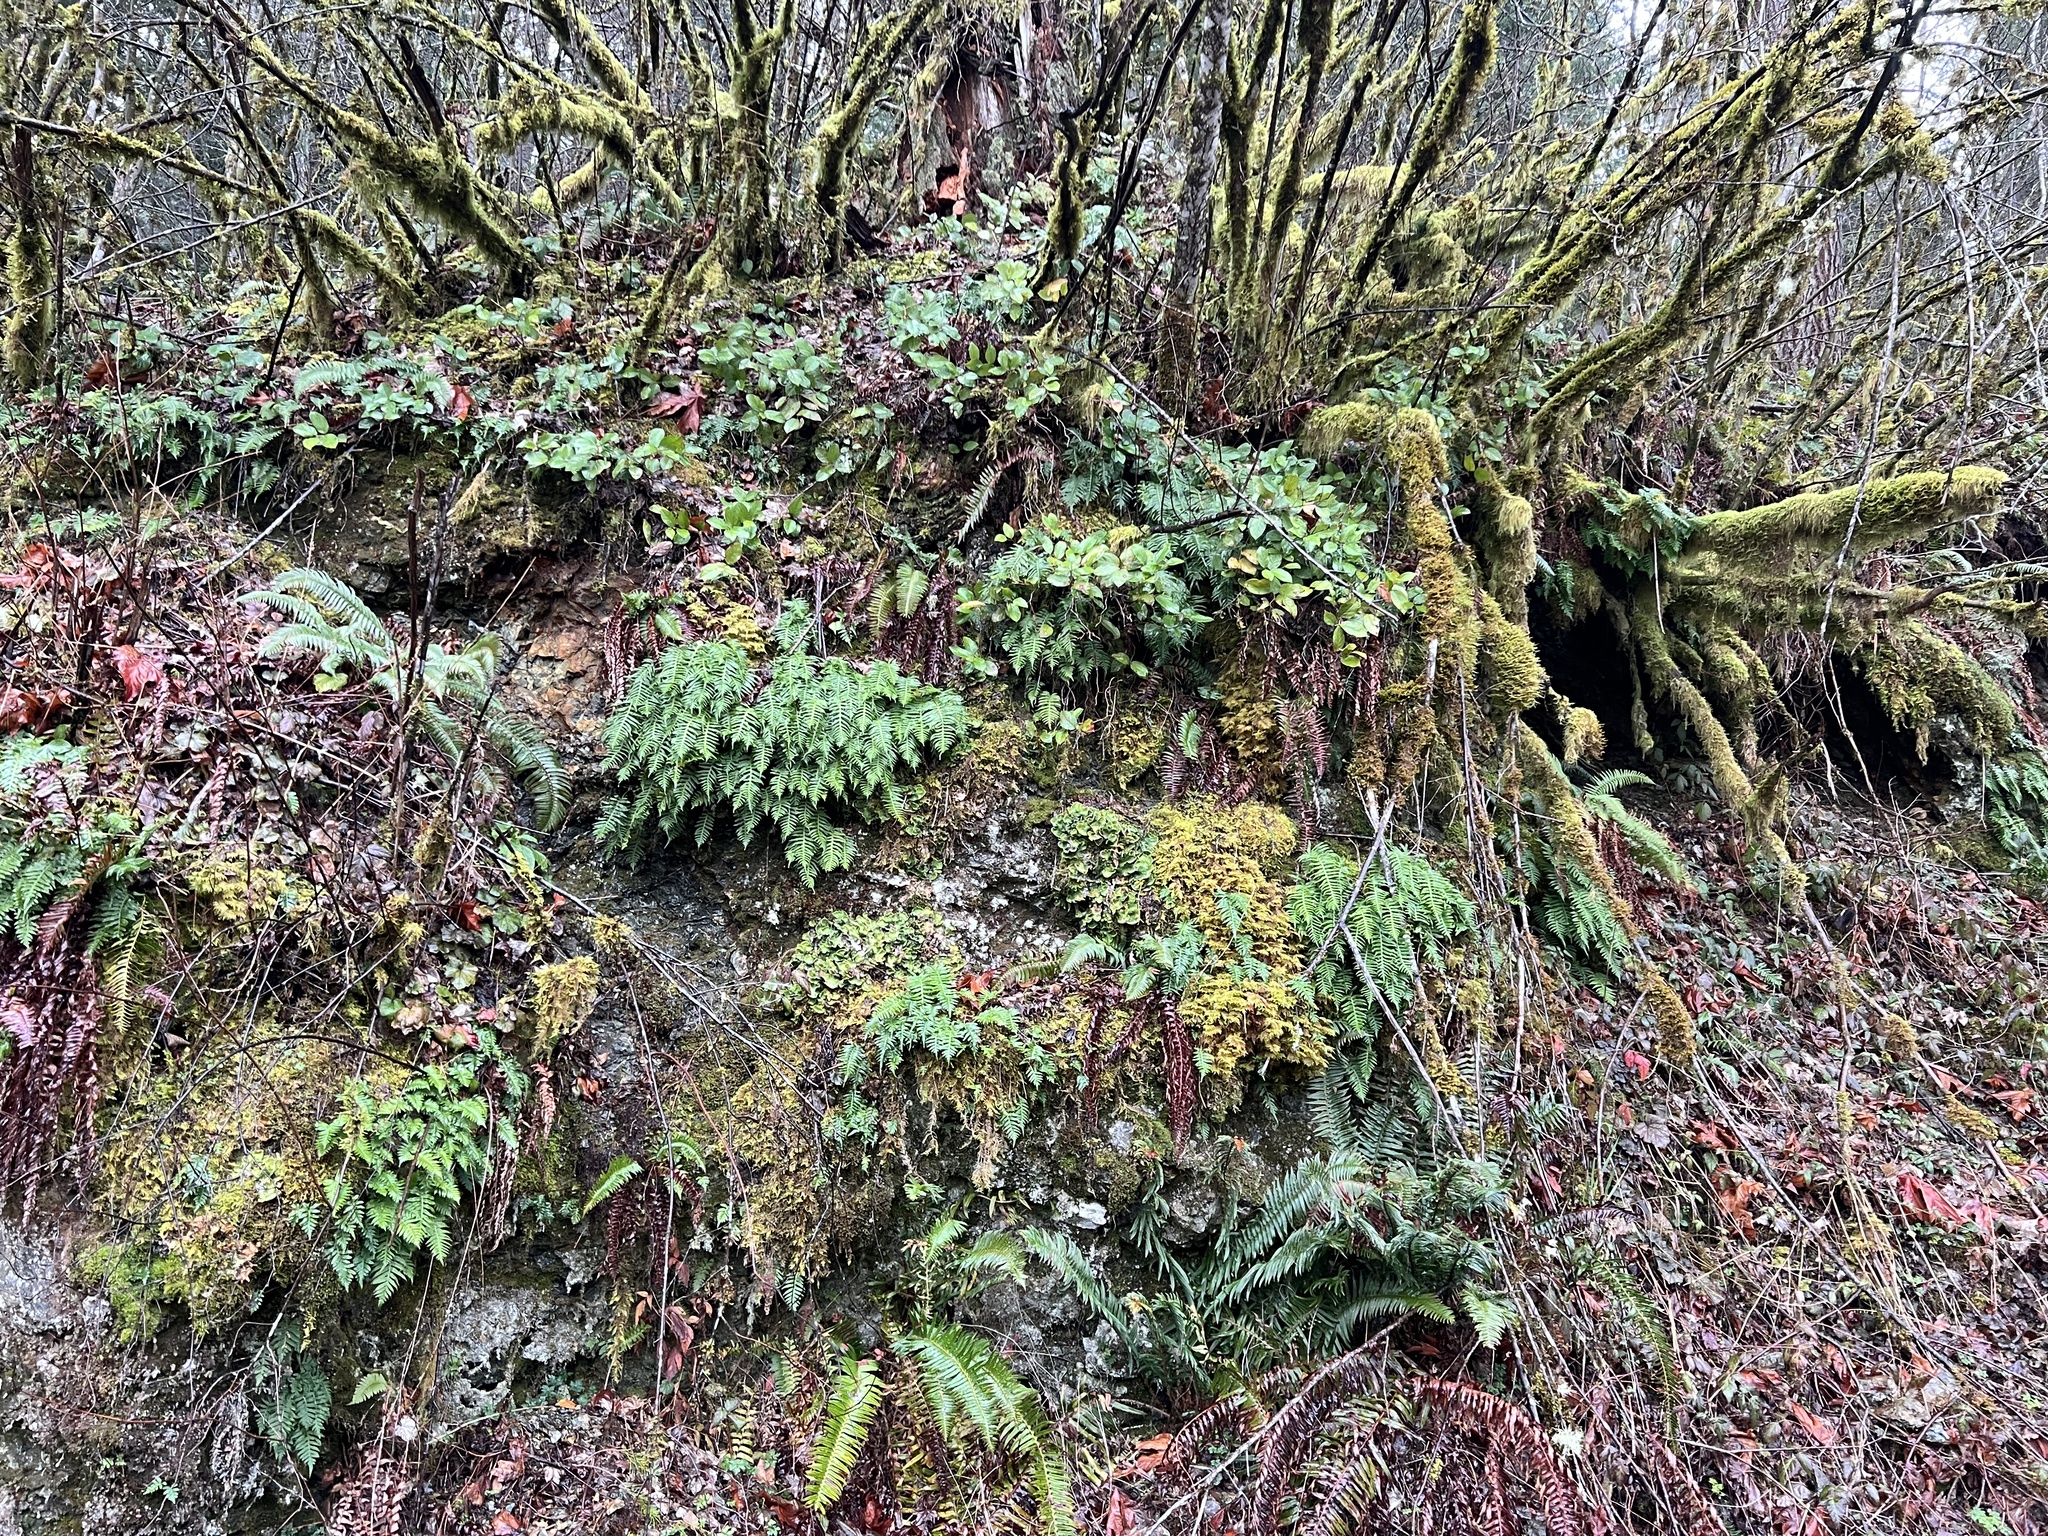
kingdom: Plantae
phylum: Tracheophyta
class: Polypodiopsida
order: Polypodiales
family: Polypodiaceae
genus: Polypodium
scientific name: Polypodium glycyrrhiza
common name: Licorice fern
